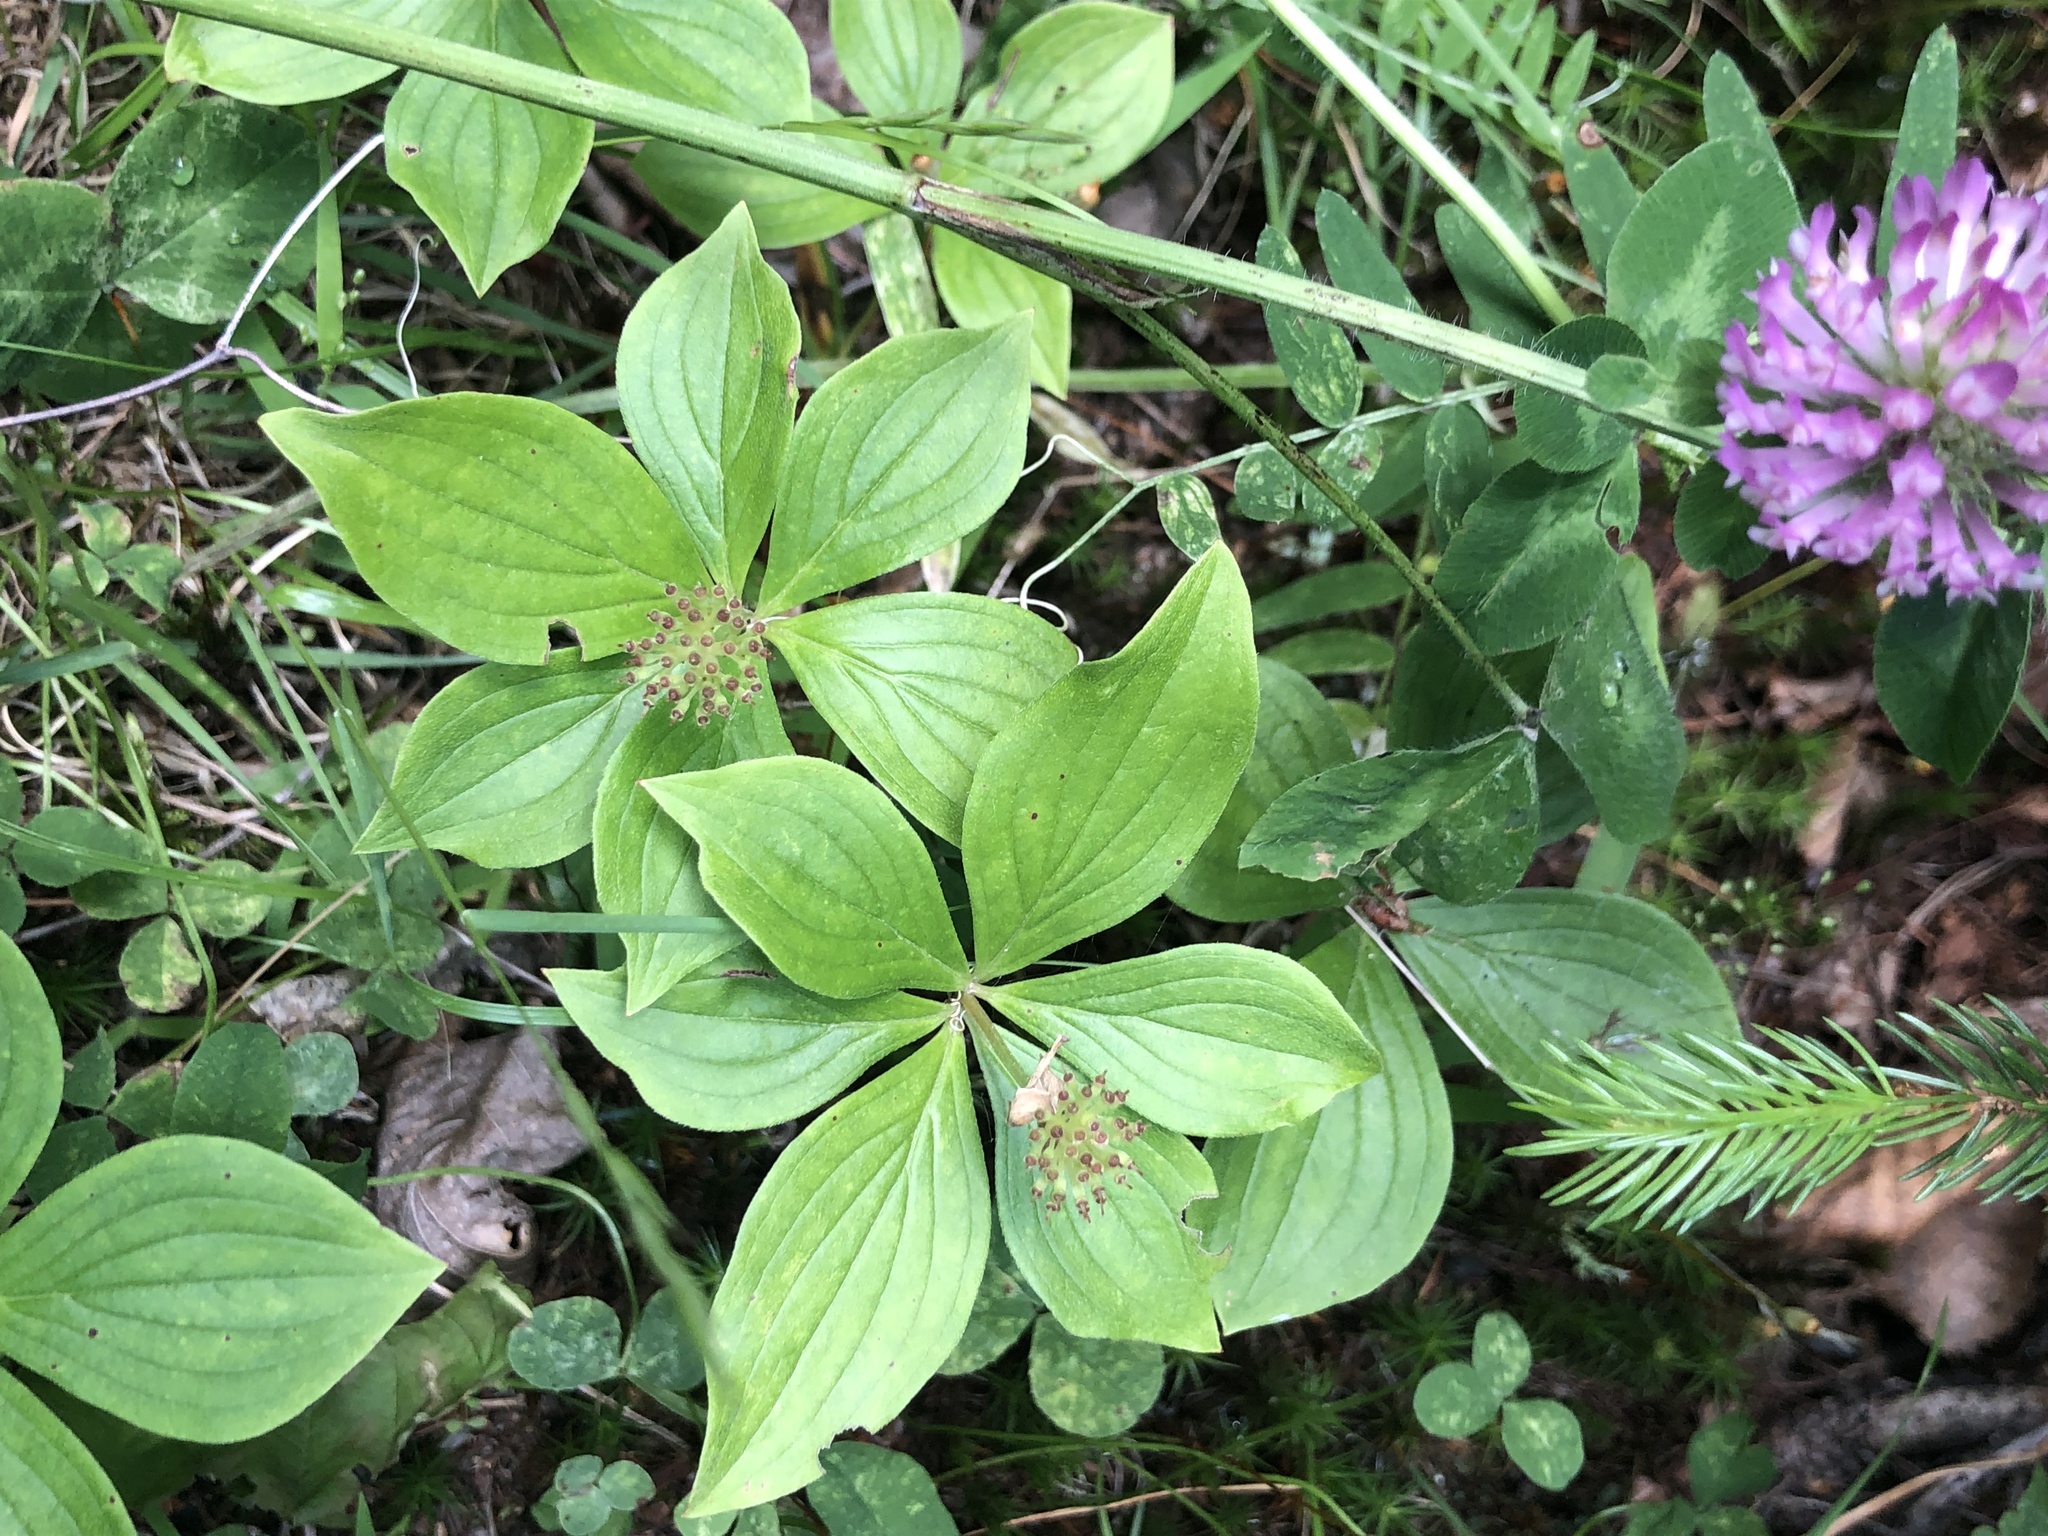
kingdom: Plantae
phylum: Tracheophyta
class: Magnoliopsida
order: Cornales
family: Cornaceae
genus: Cornus
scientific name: Cornus canadensis
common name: Creeping dogwood
